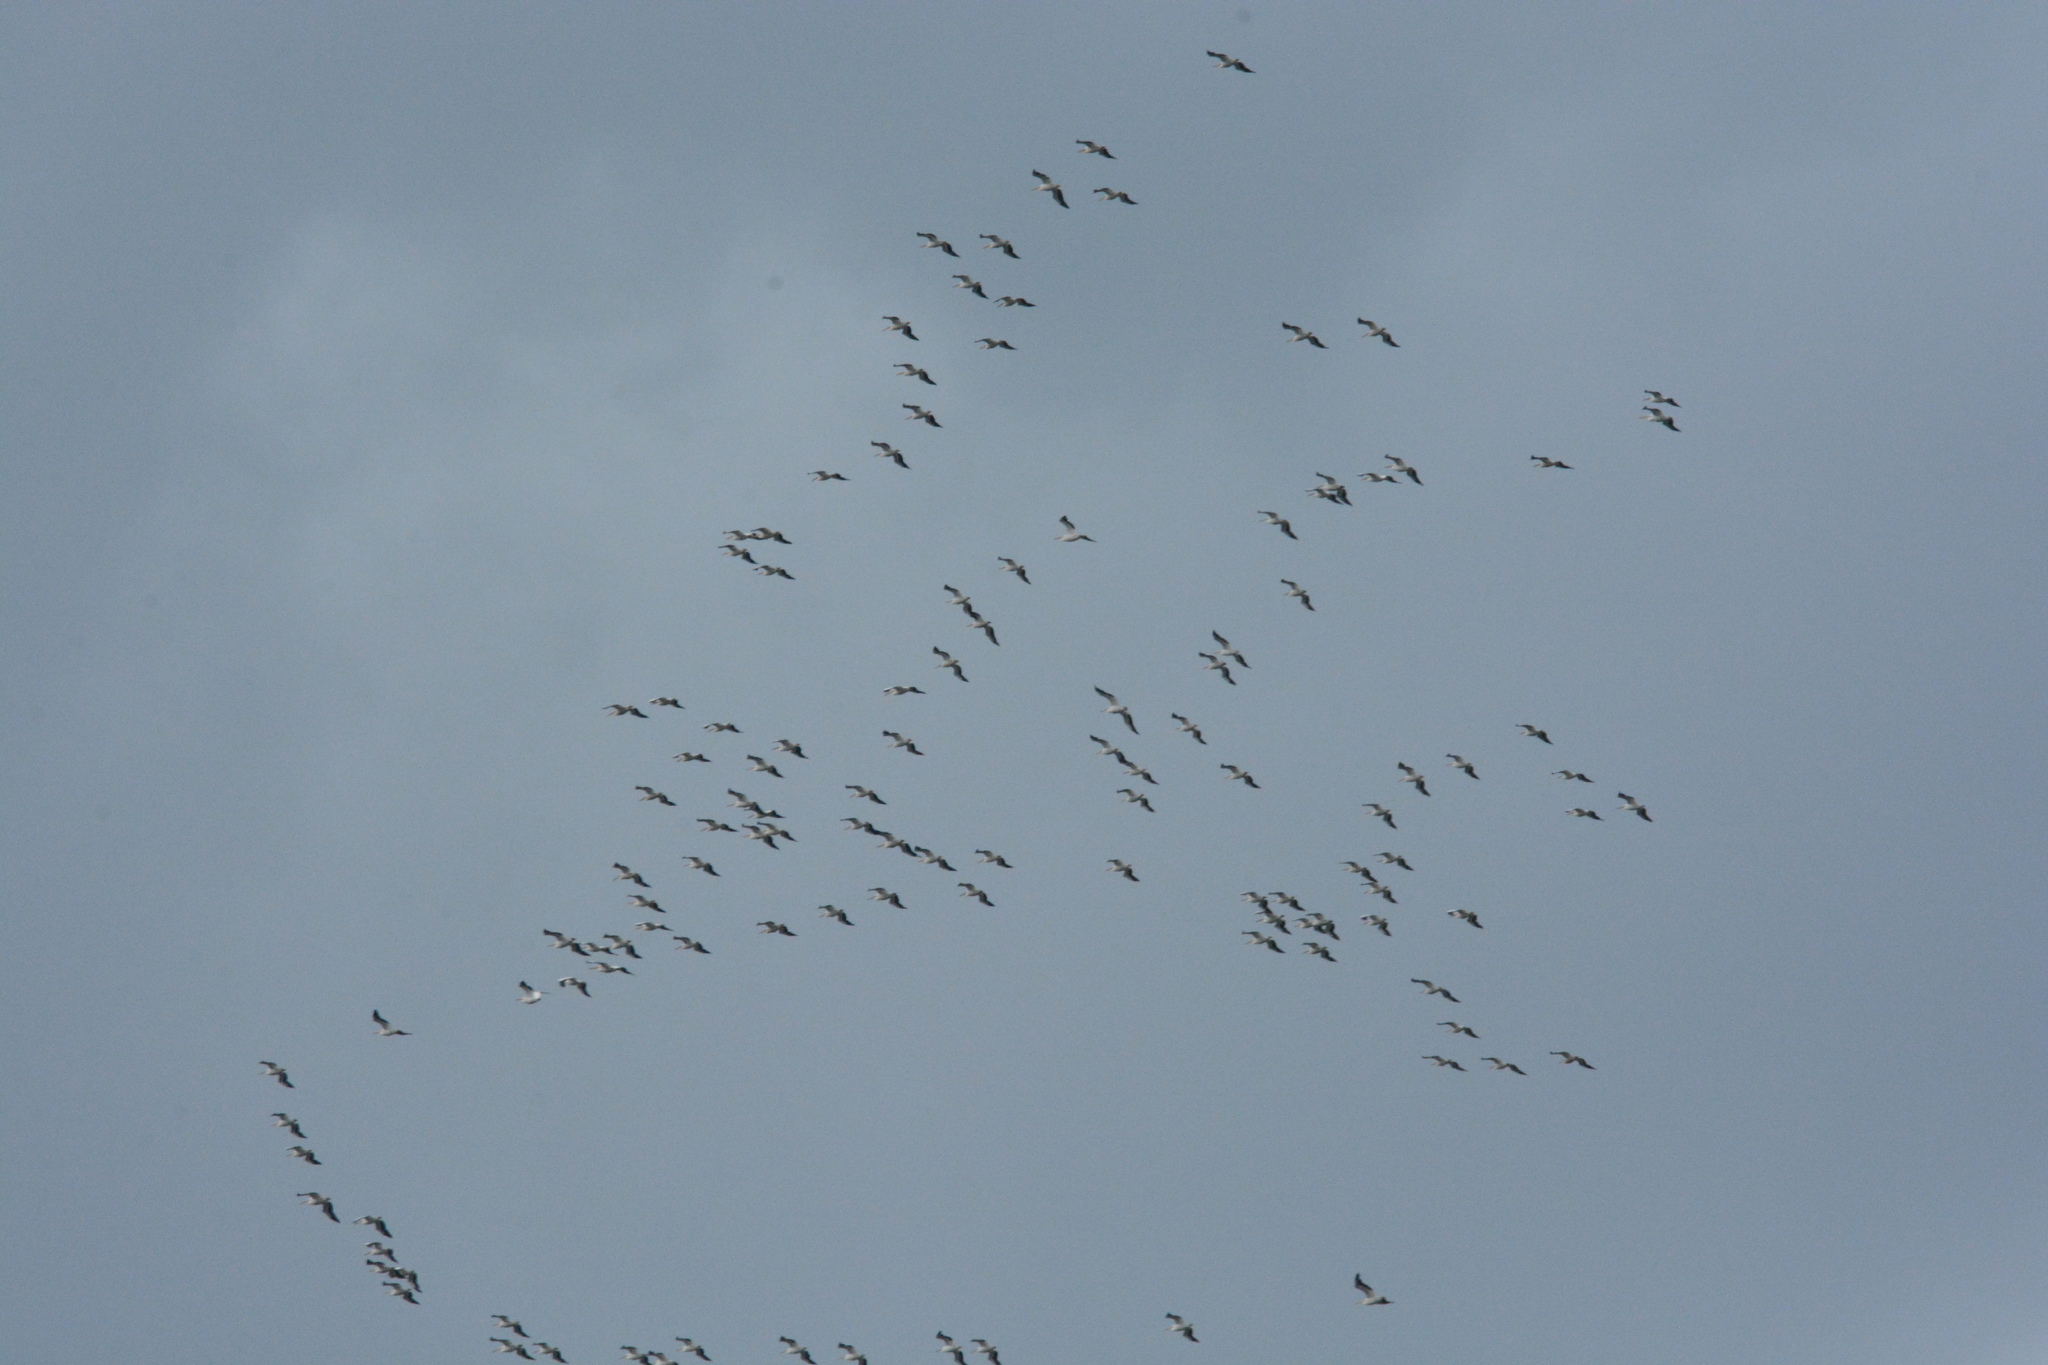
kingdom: Animalia
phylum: Chordata
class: Aves
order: Pelecaniformes
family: Pelecanidae
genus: Pelecanus
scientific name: Pelecanus erythrorhynchos
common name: American white pelican
